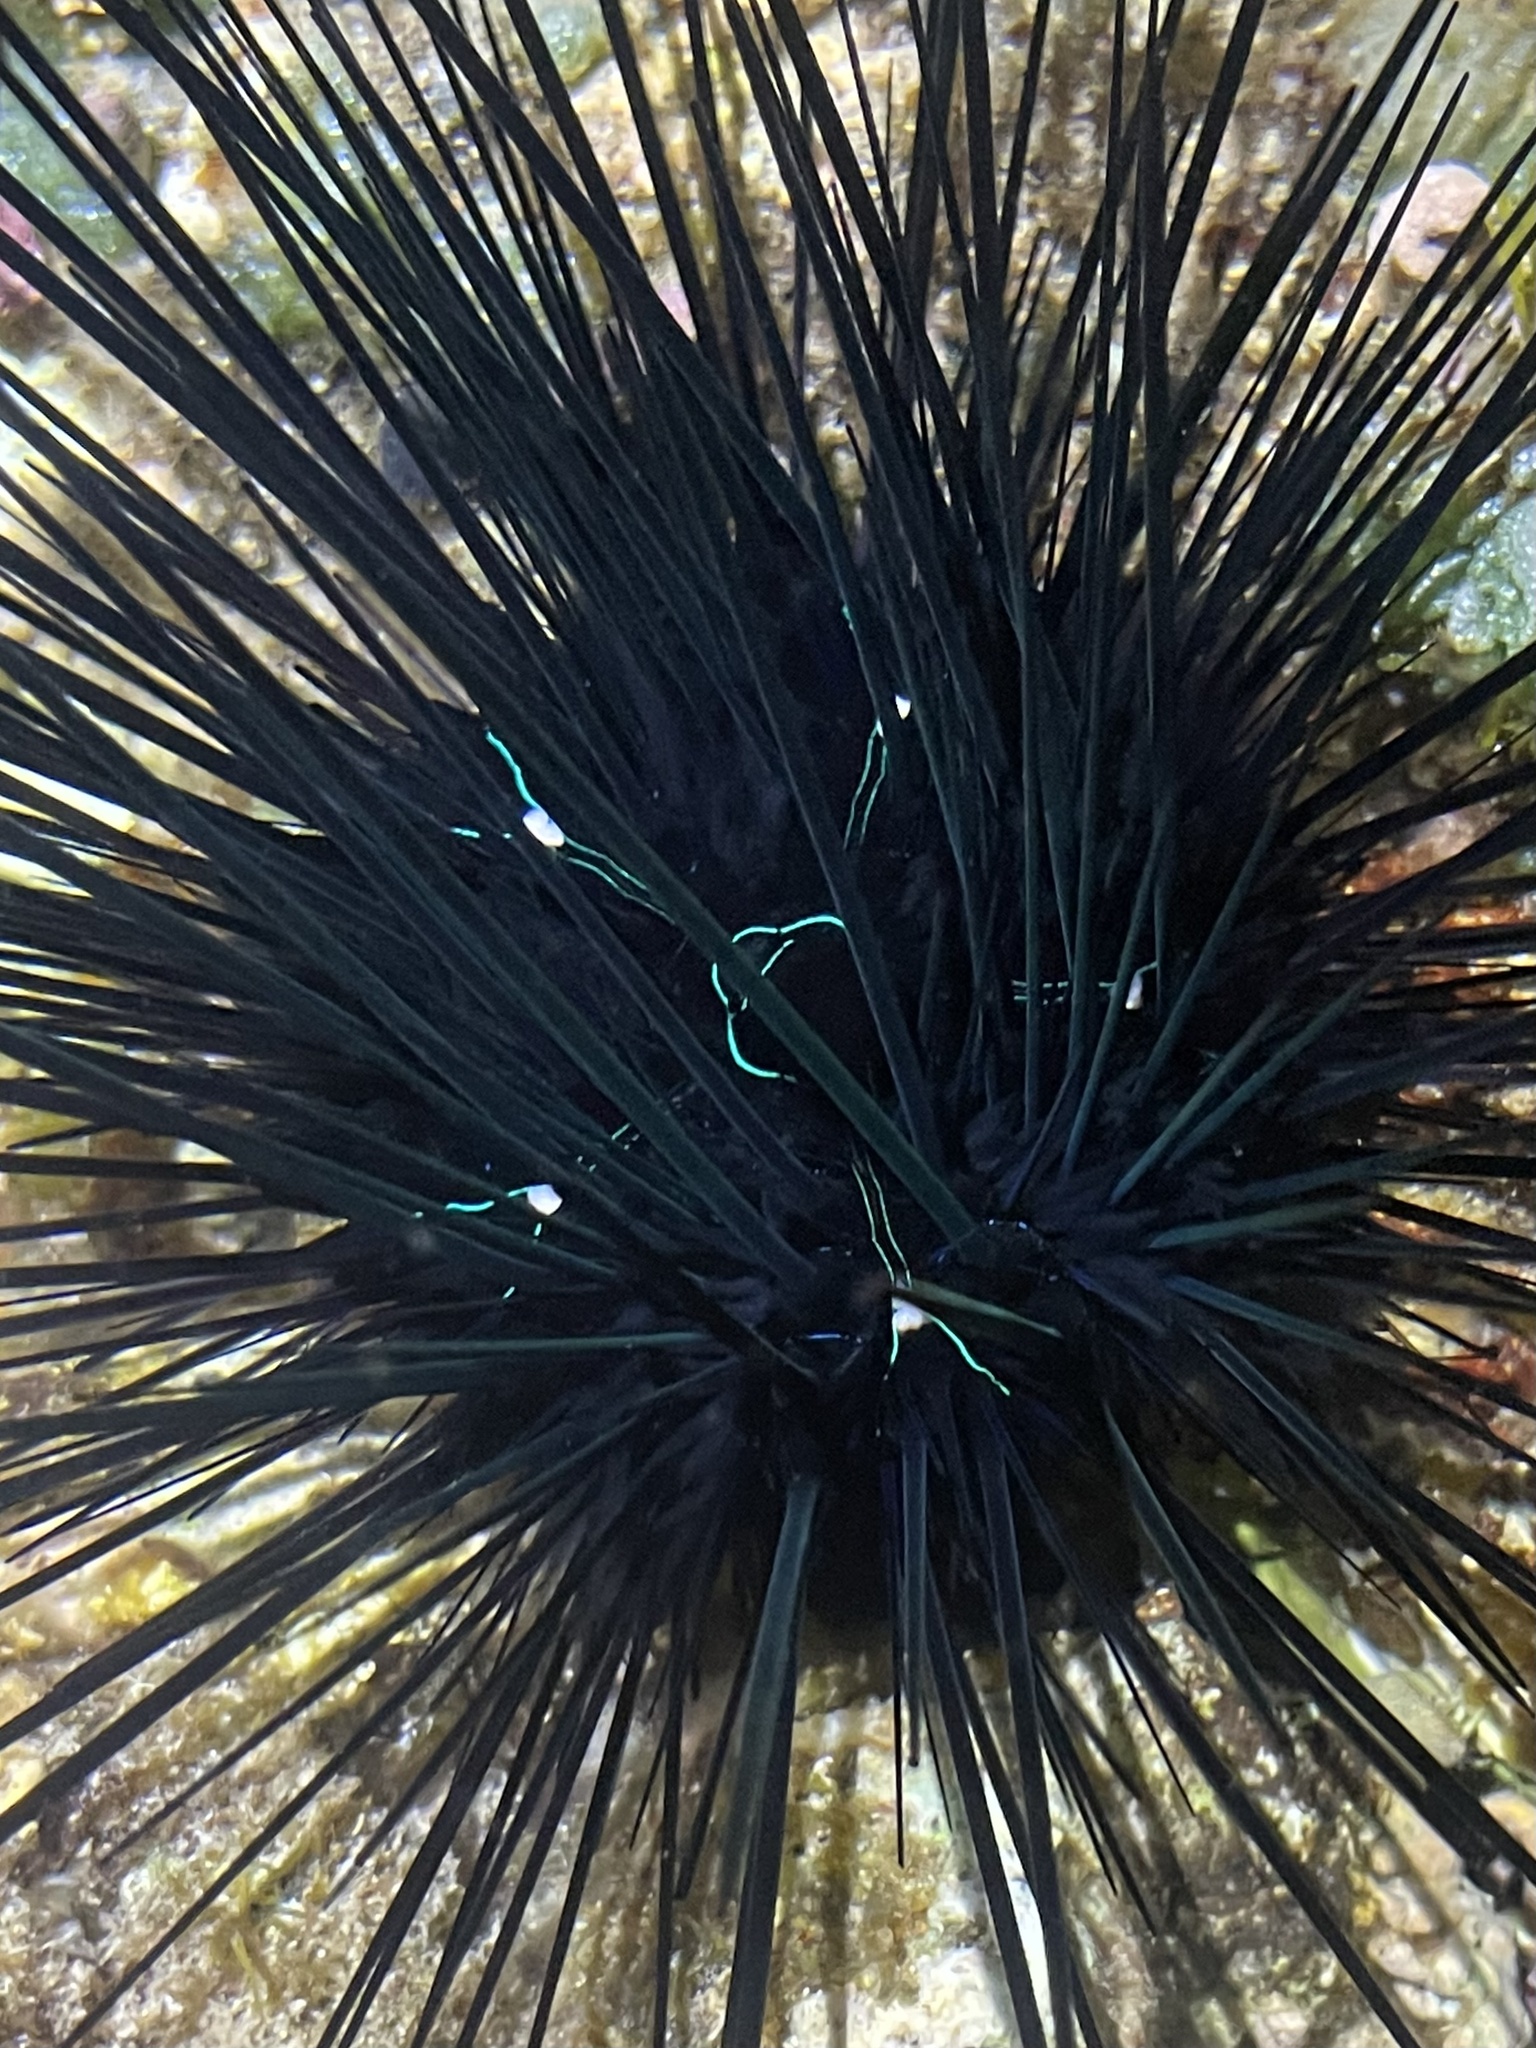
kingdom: Animalia
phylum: Echinodermata
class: Echinoidea
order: Diadematoida
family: Diadematidae
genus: Diadema
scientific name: Diadema savignyi
